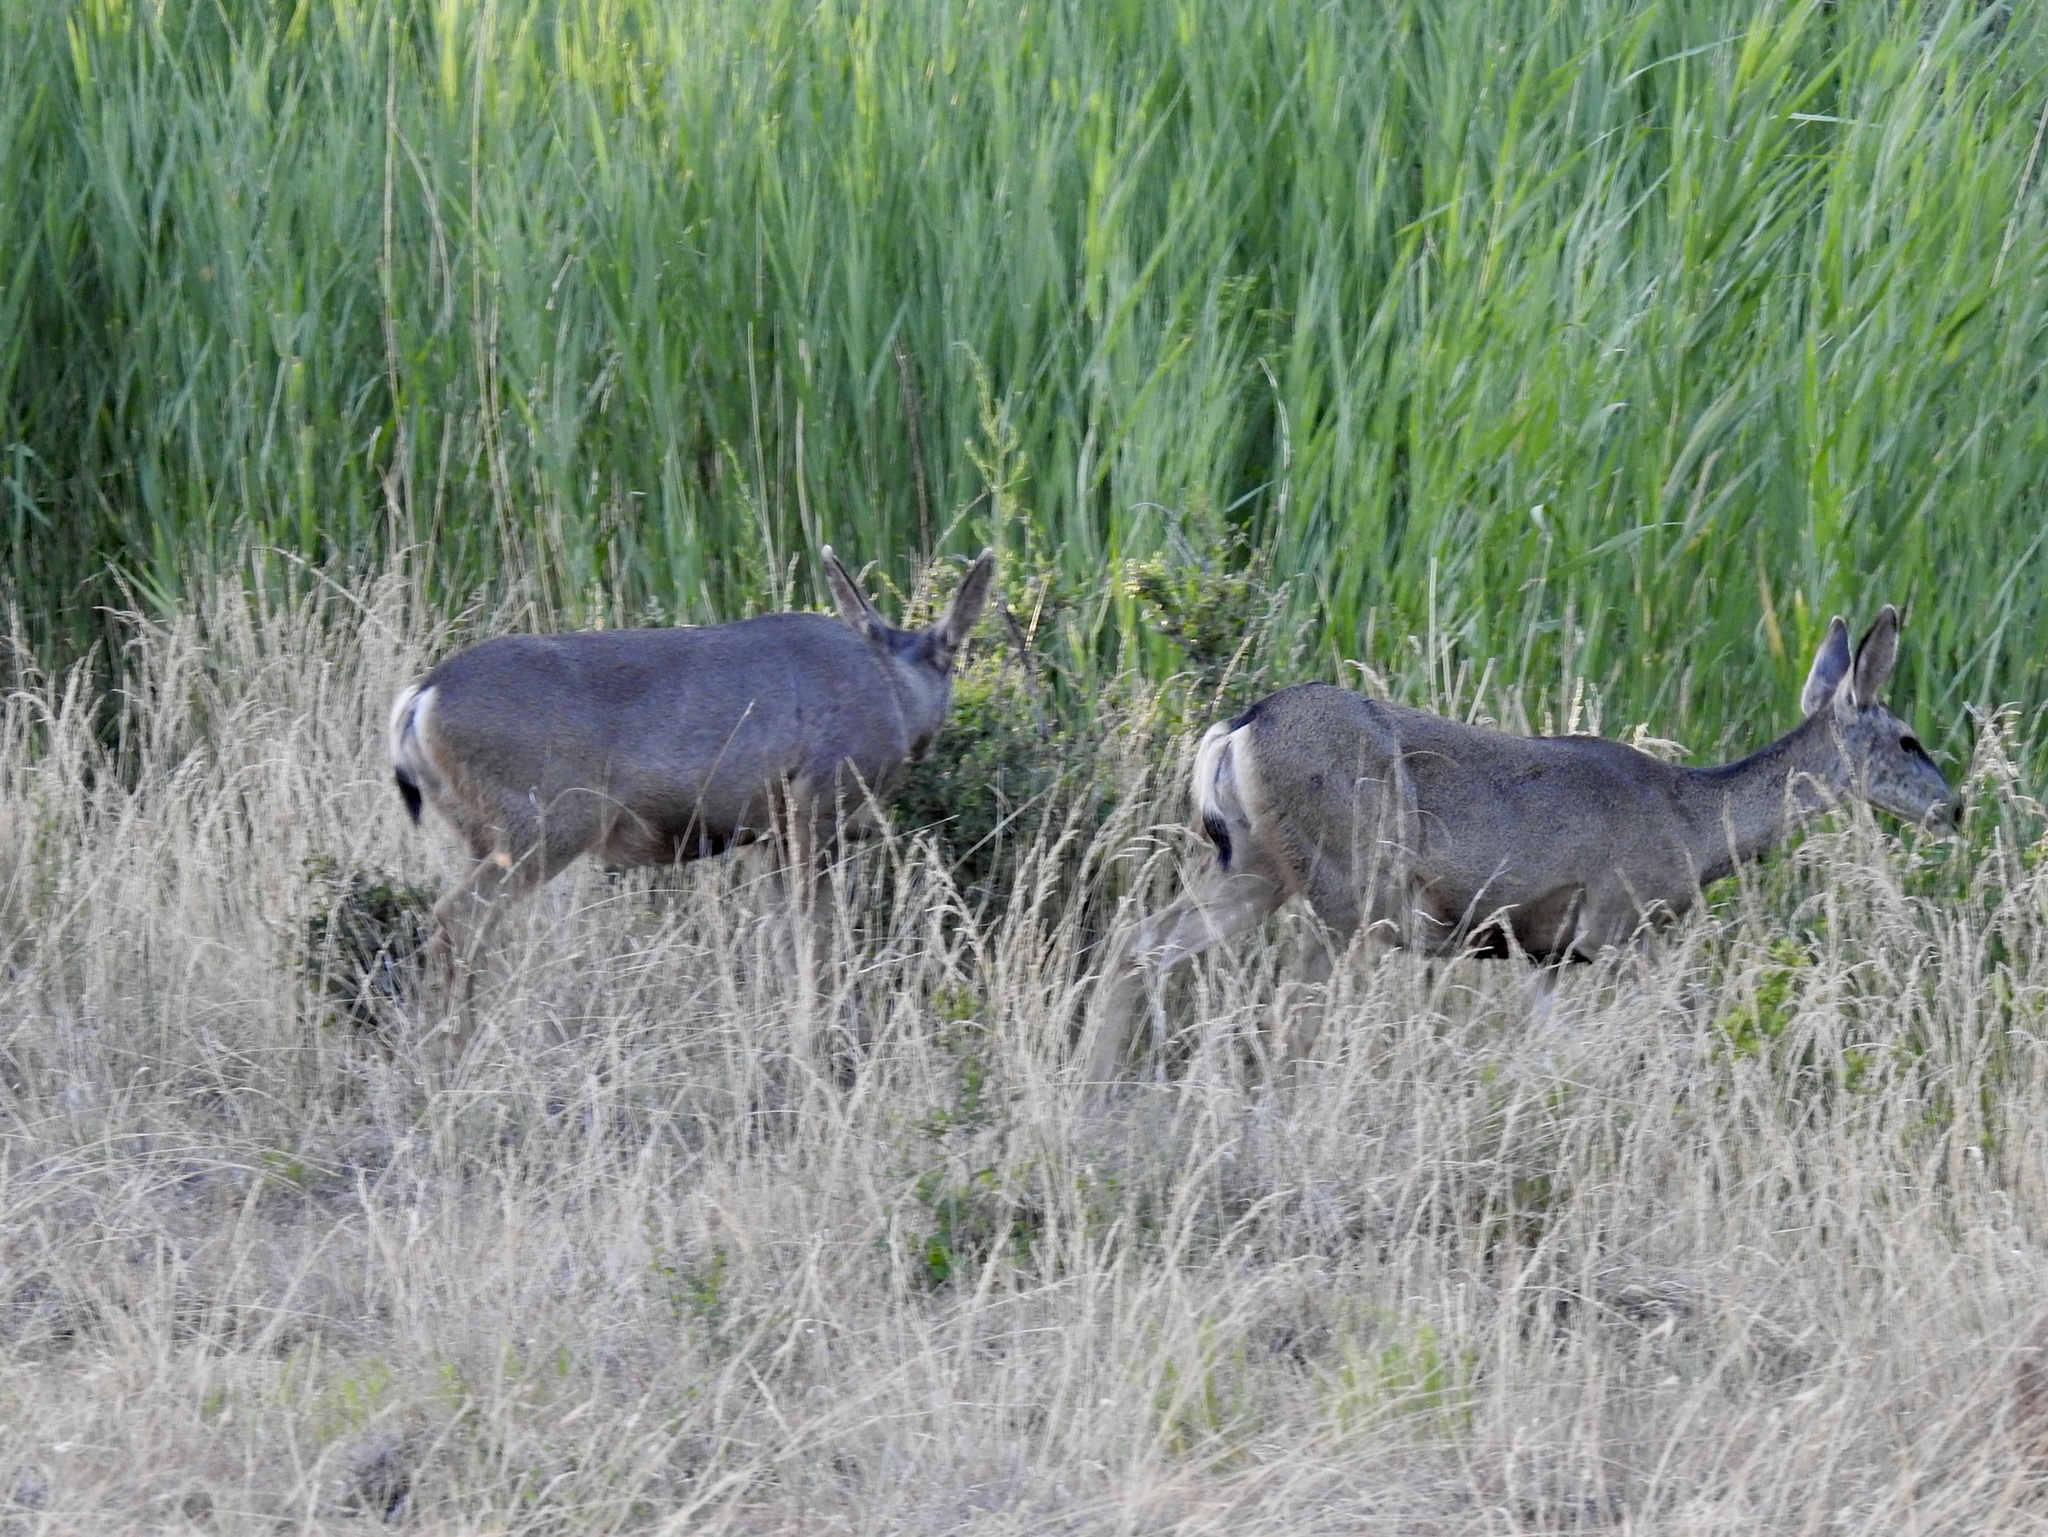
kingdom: Animalia
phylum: Chordata
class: Mammalia
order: Artiodactyla
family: Cervidae
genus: Odocoileus
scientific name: Odocoileus hemionus
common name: Mule deer
